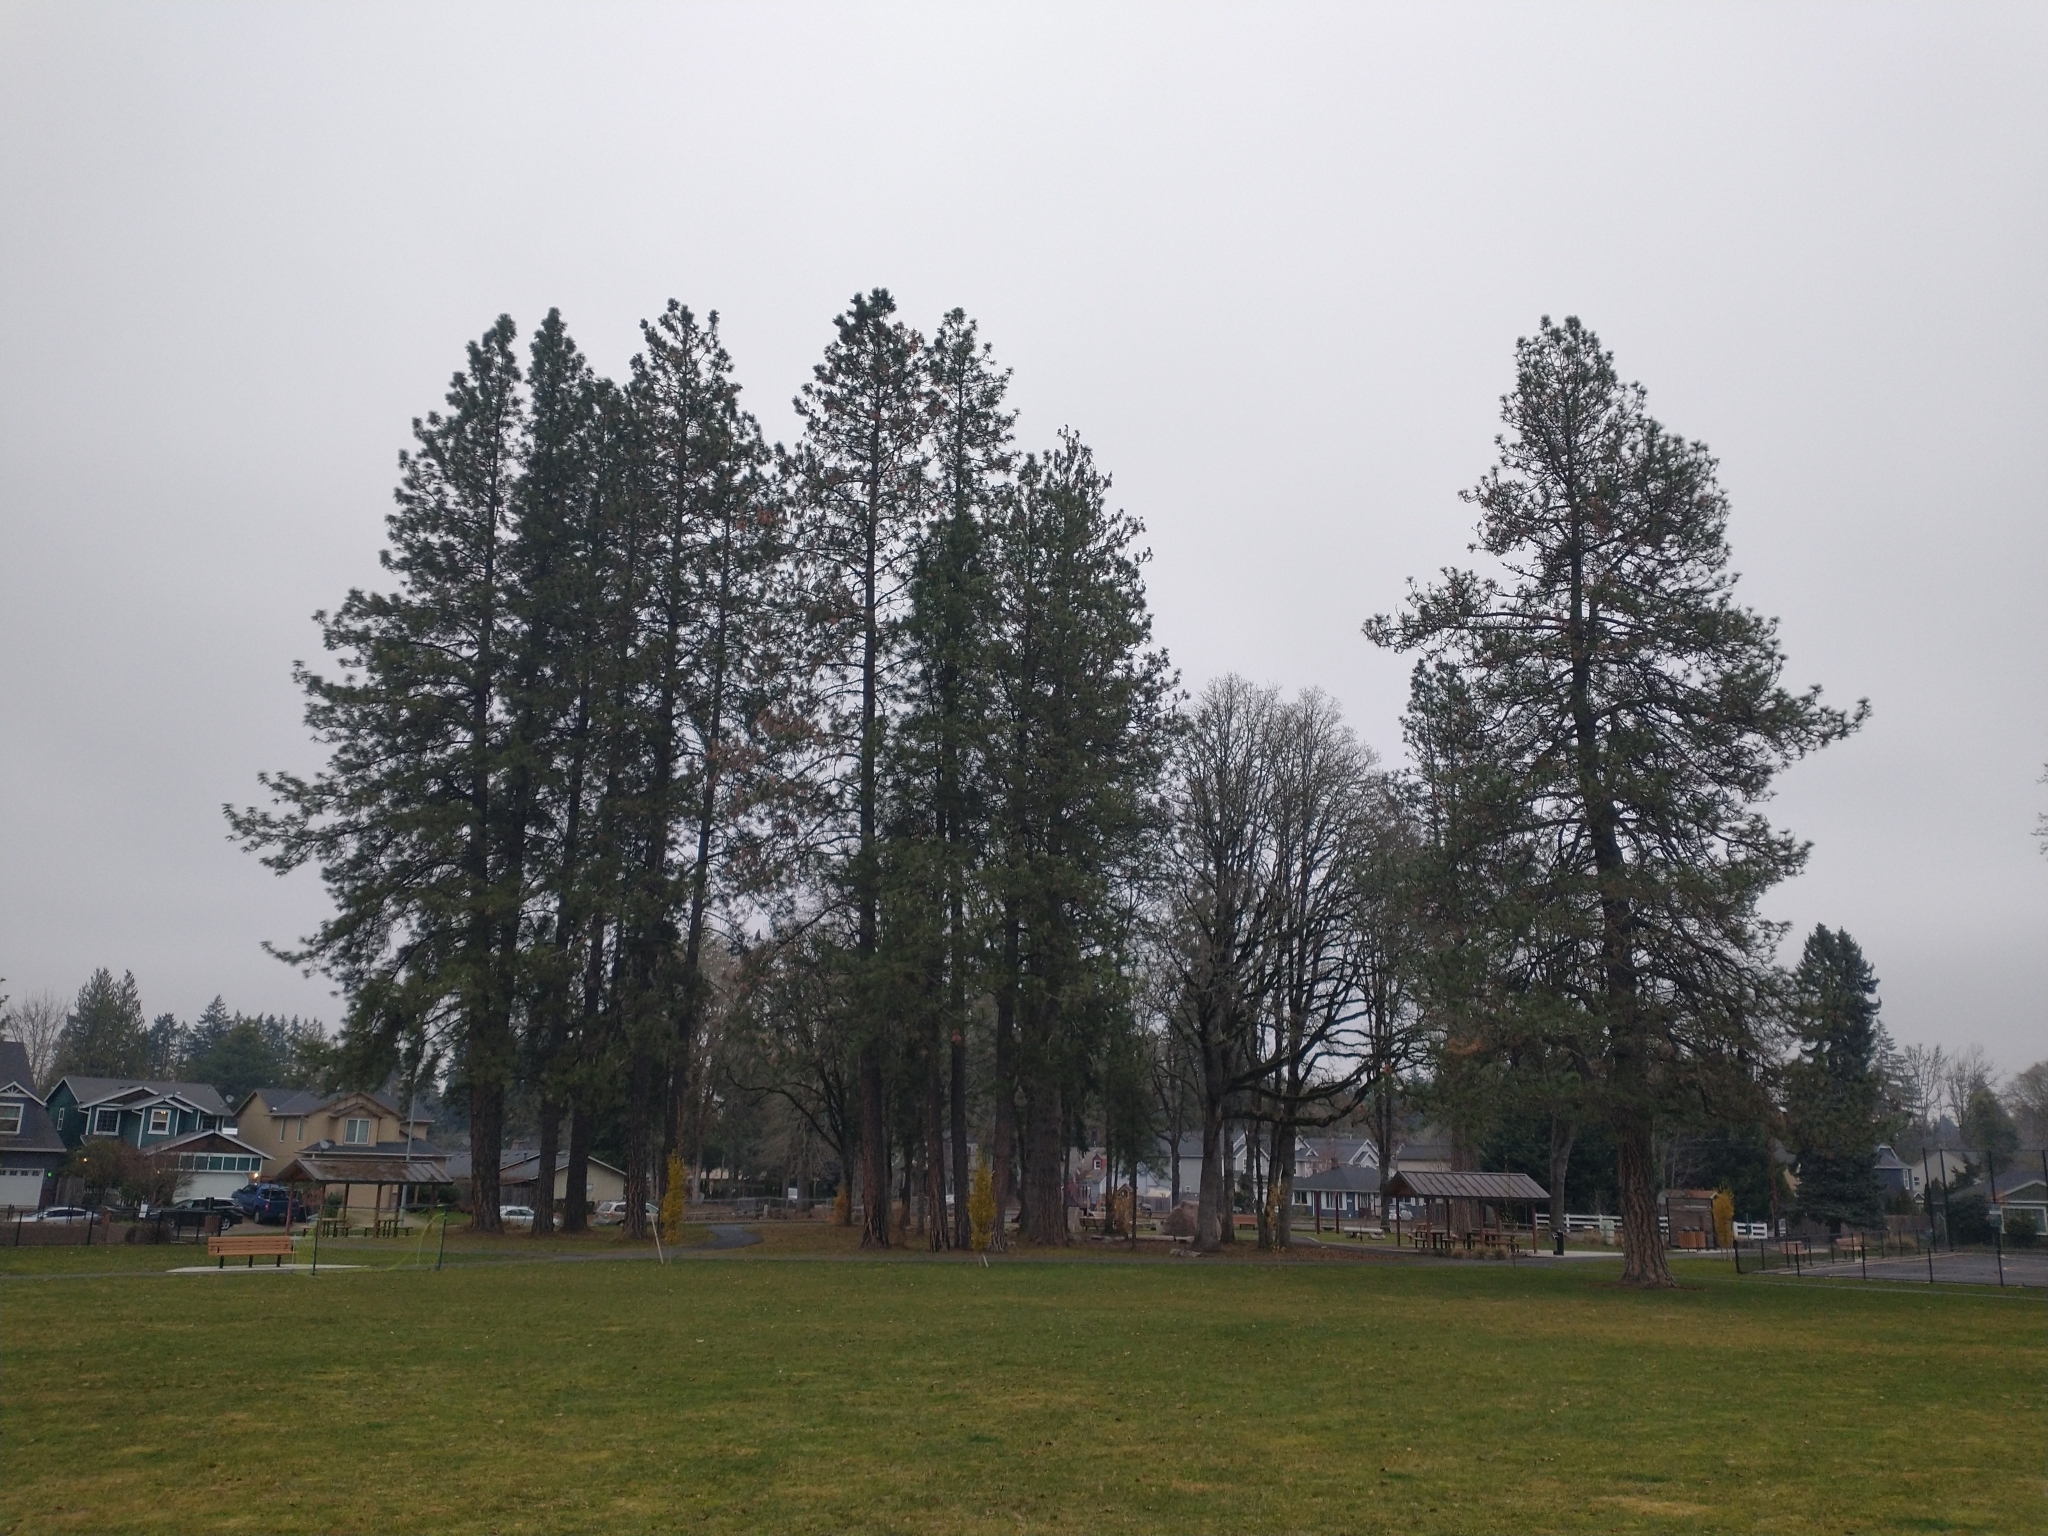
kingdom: Plantae
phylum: Tracheophyta
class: Pinopsida
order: Pinales
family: Pinaceae
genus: Pinus
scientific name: Pinus ponderosa
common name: Western yellow-pine
